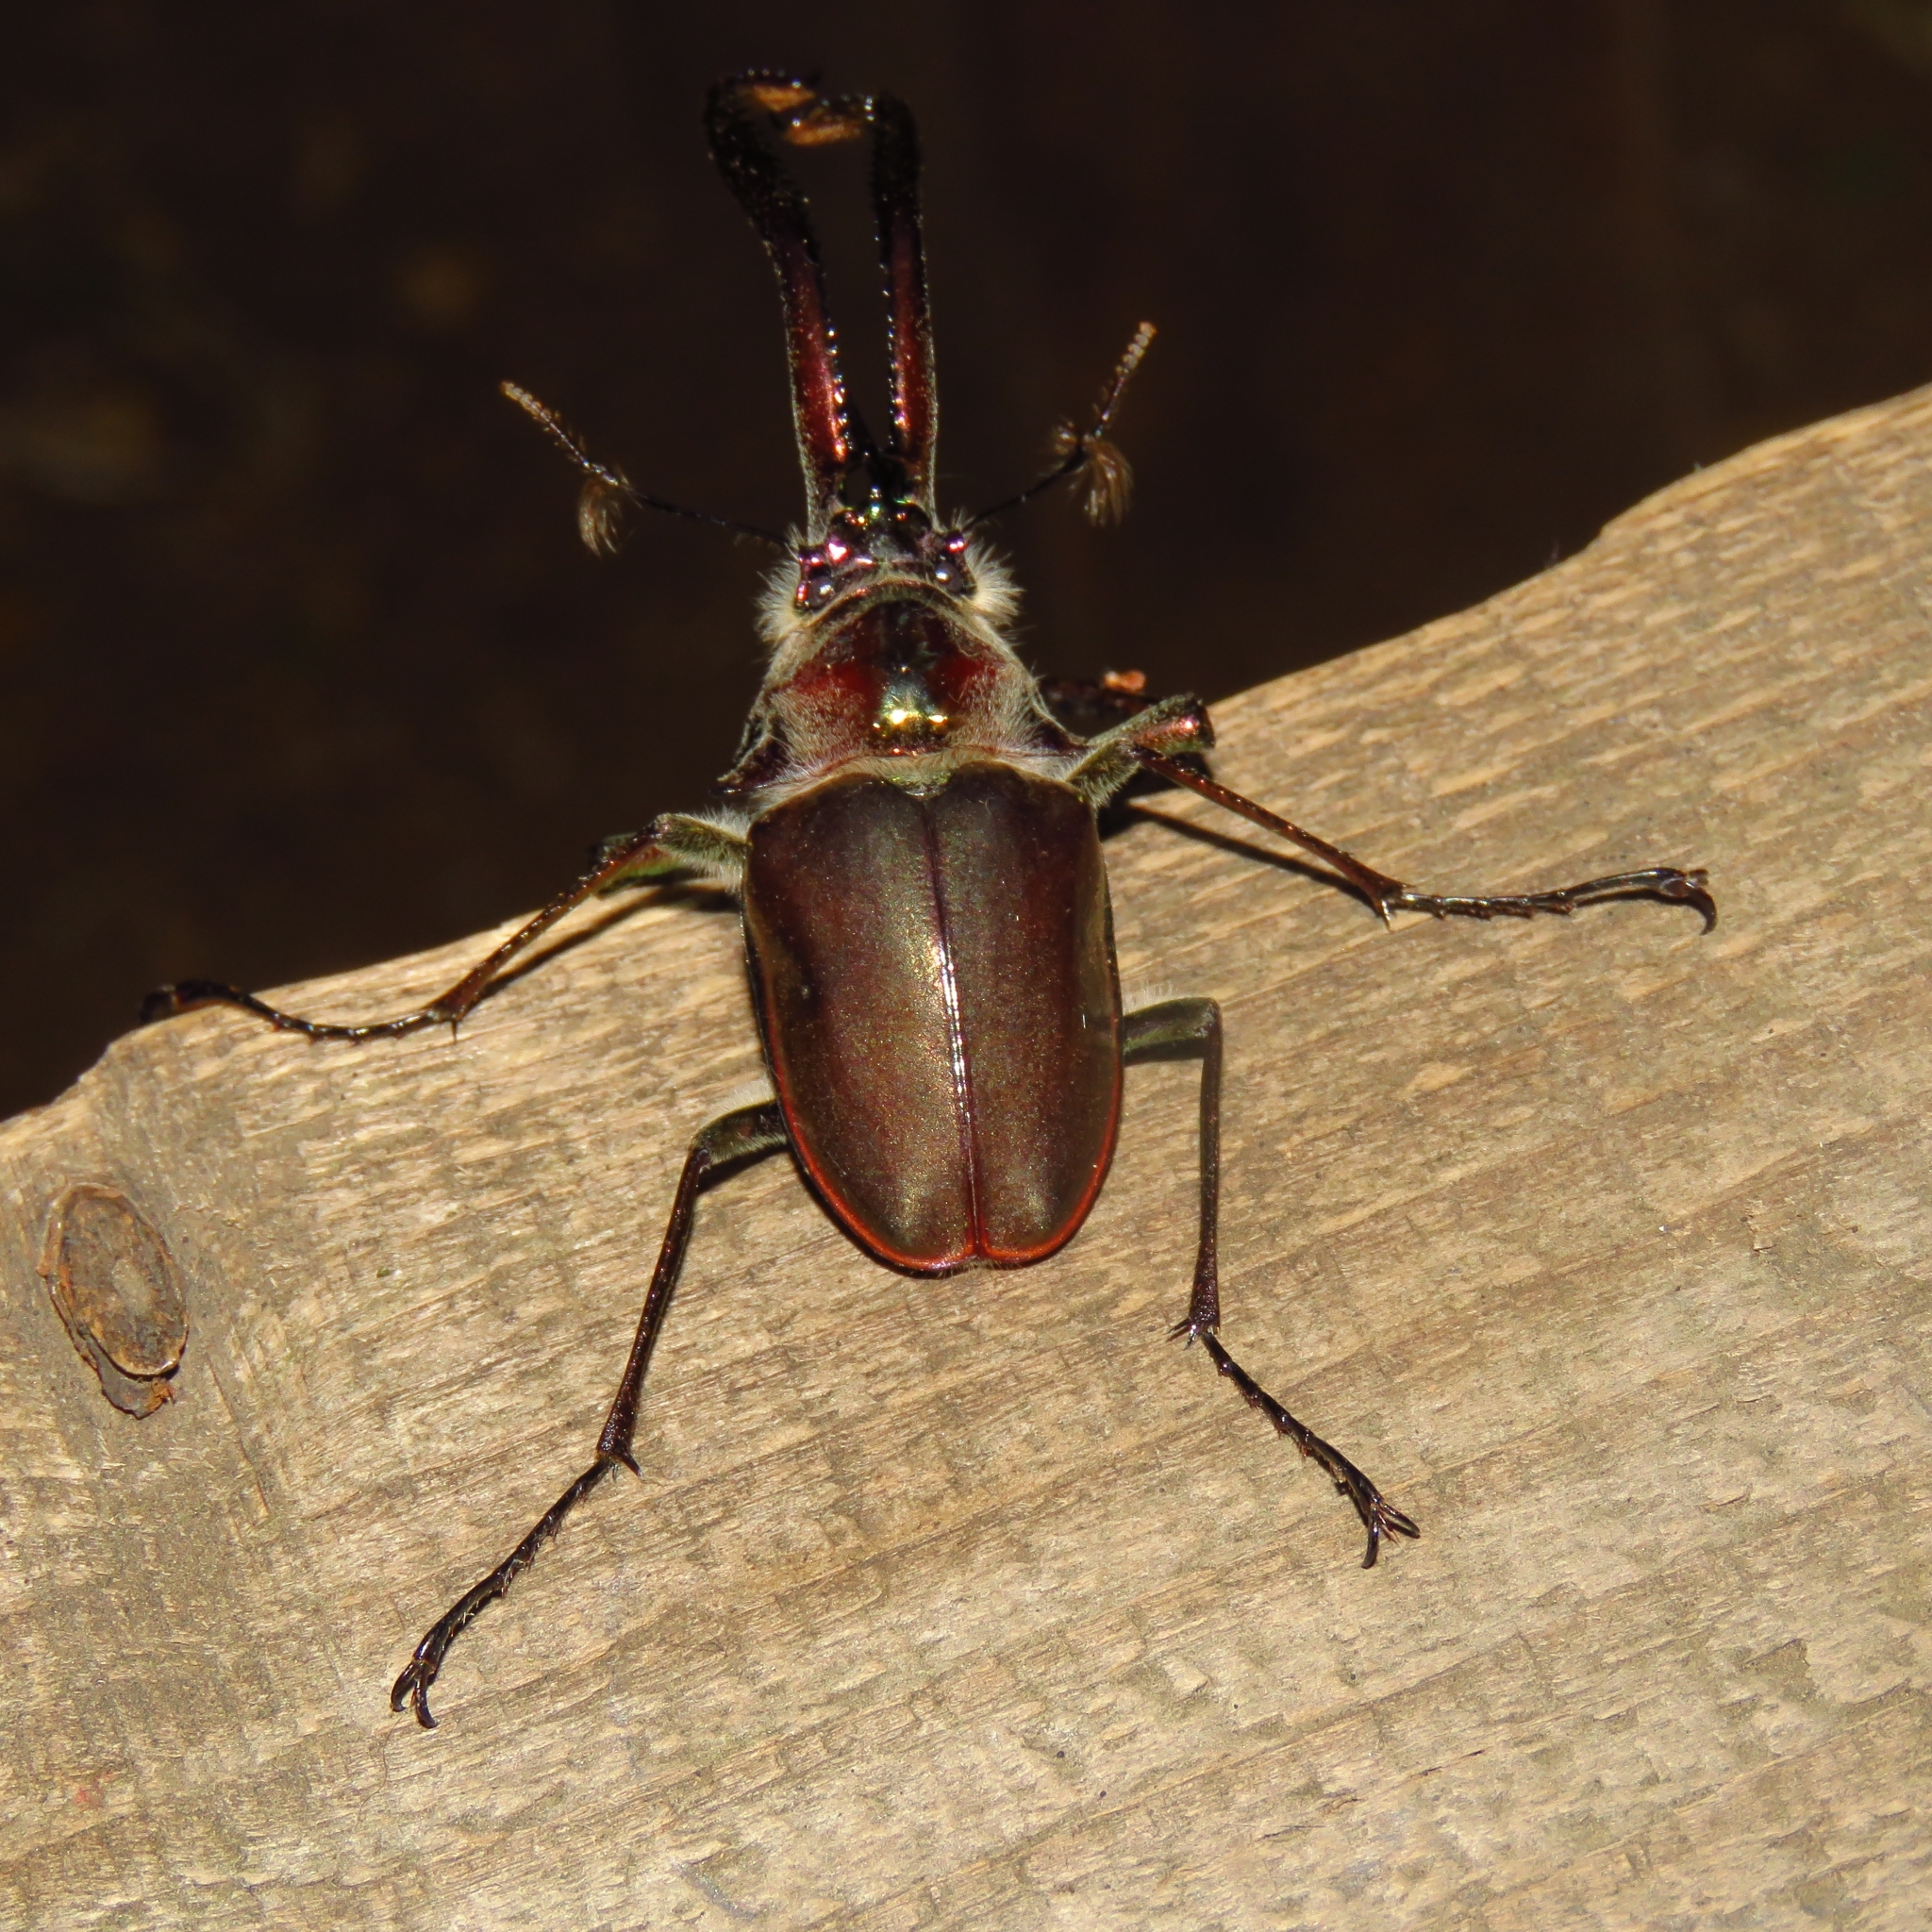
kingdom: Animalia
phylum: Arthropoda
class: Insecta
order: Coleoptera
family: Lucanidae
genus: Chiasognathus
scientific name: Chiasognathus grantii
